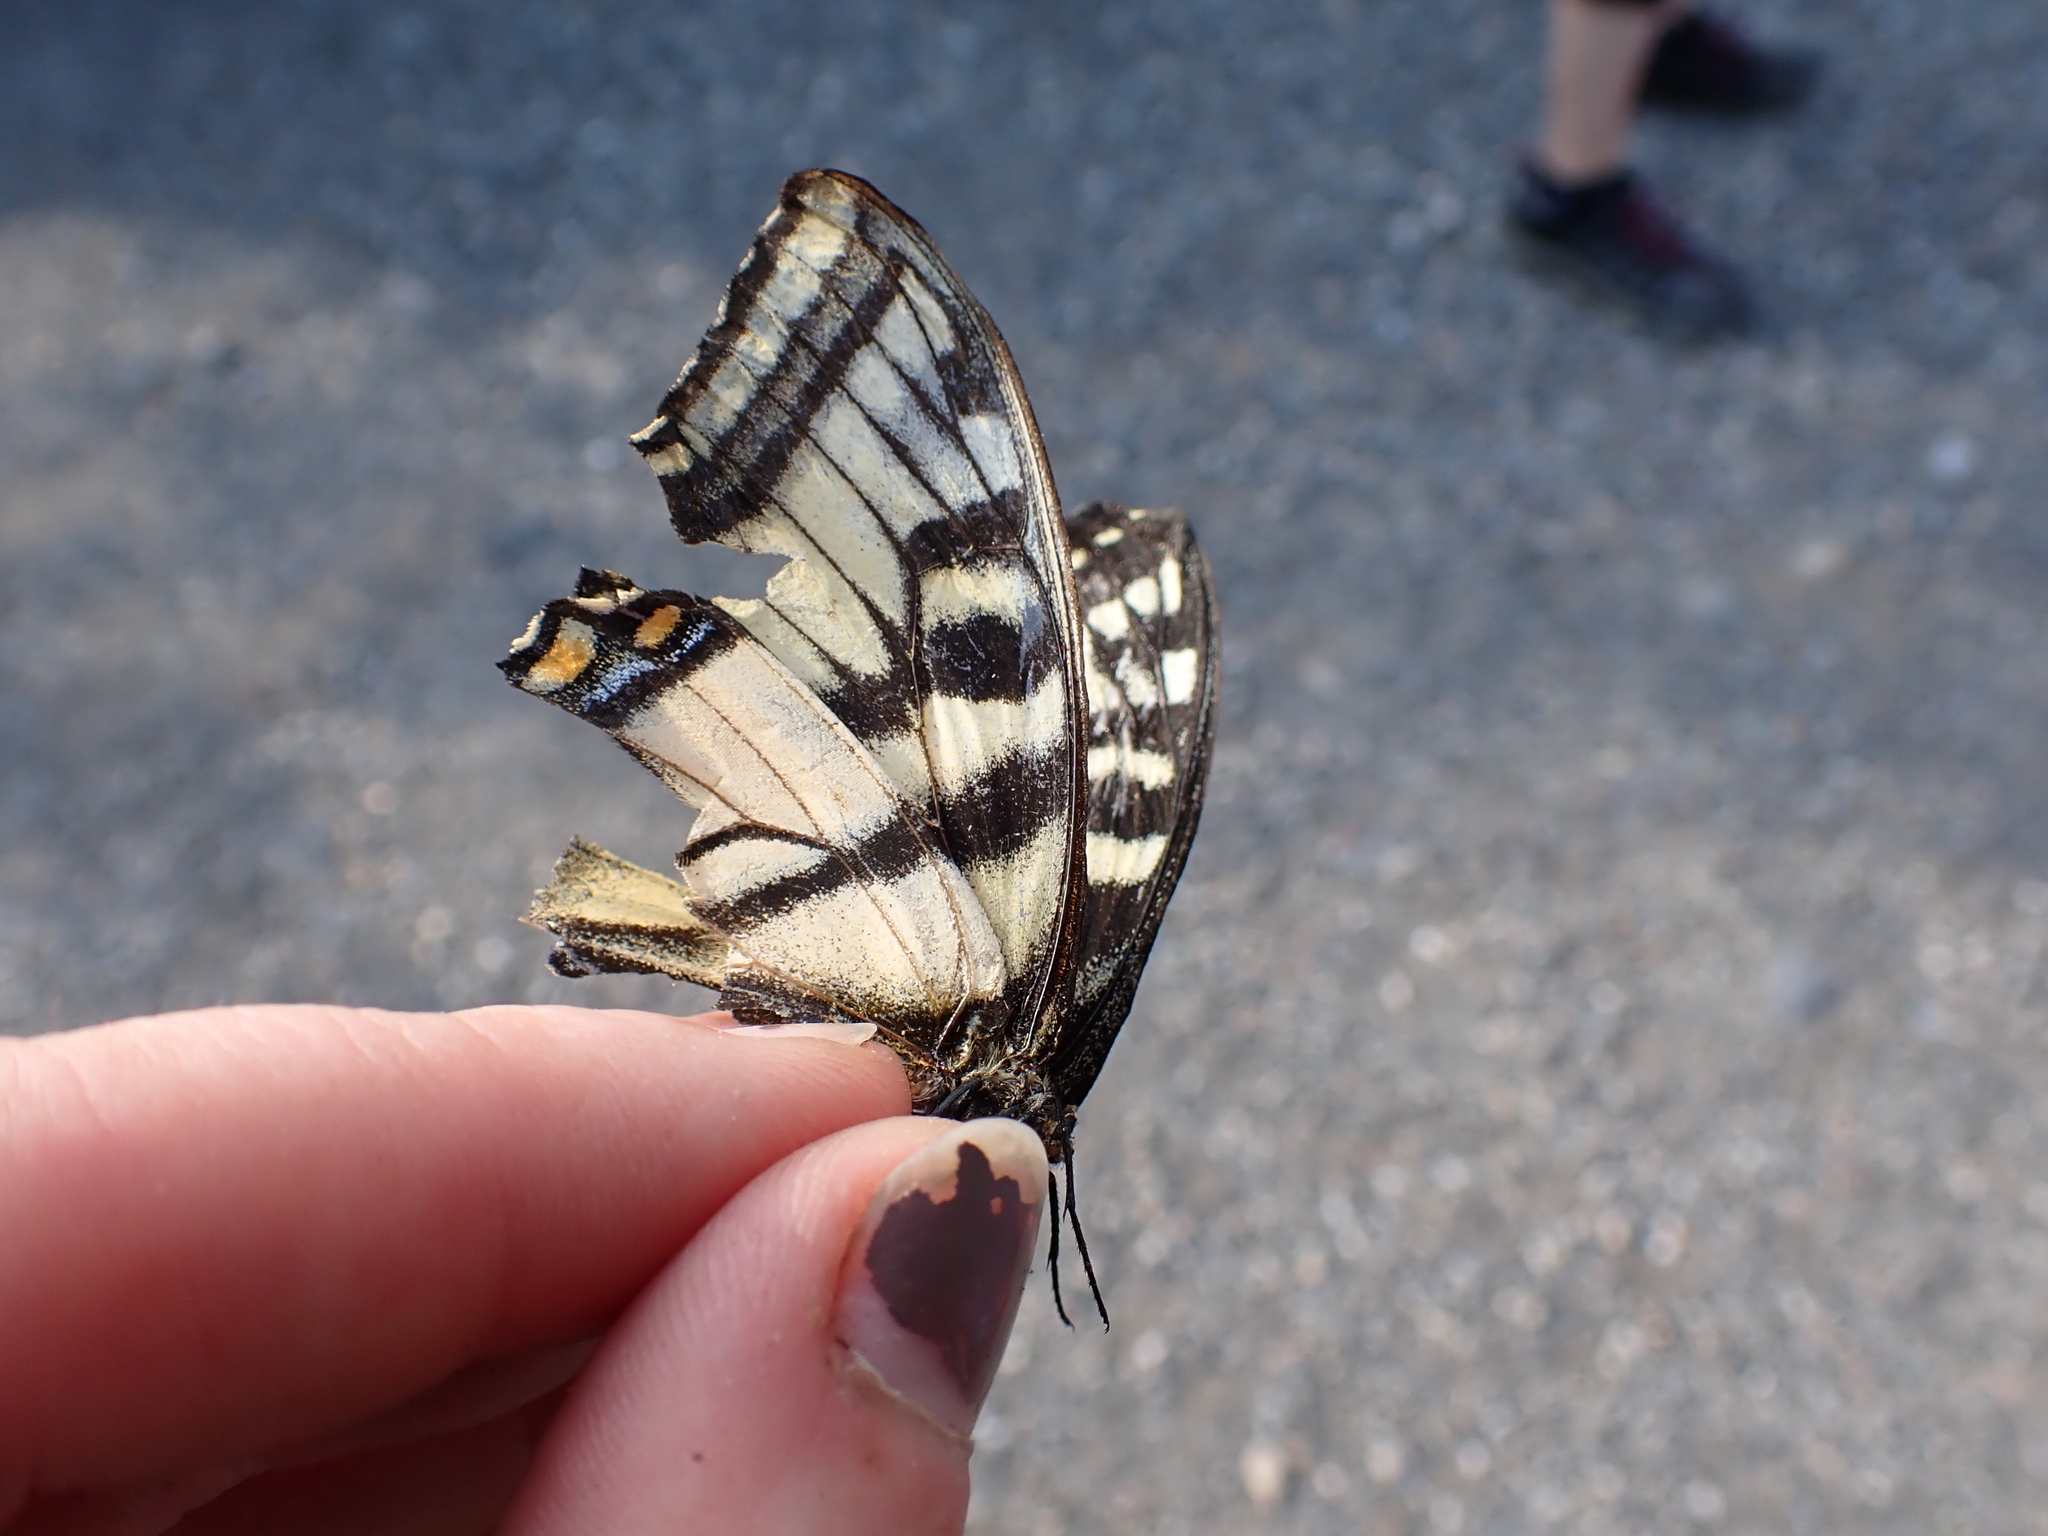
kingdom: Animalia
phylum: Arthropoda
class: Insecta
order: Lepidoptera
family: Papilionidae
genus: Papilio
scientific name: Papilio canadensis
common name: Canadian tiger swallowtail
